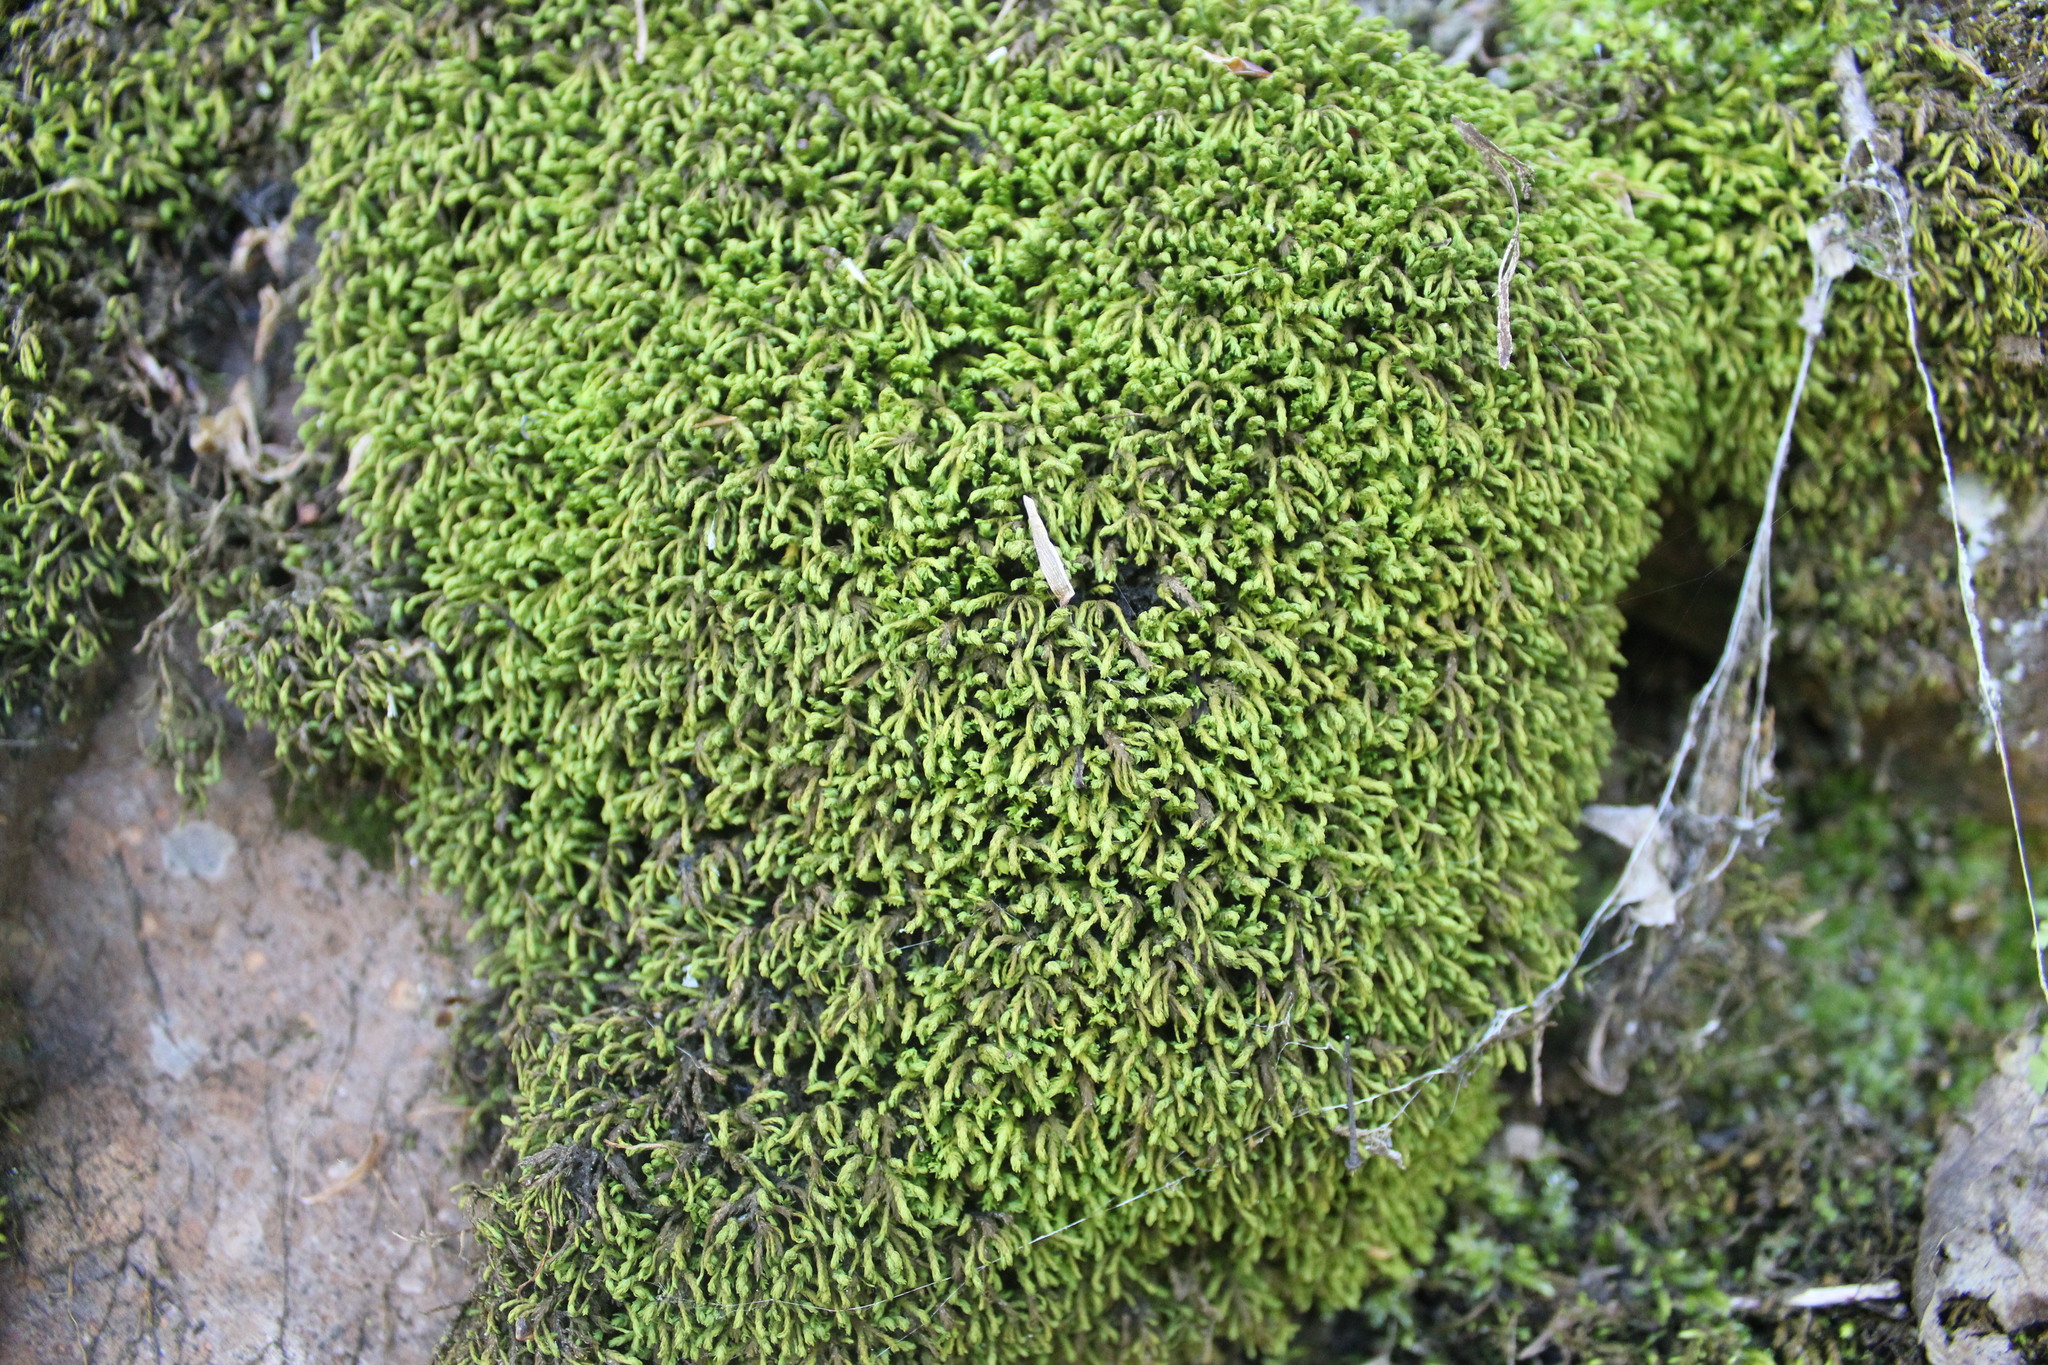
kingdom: Plantae
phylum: Bryophyta
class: Bryopsida
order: Hypnales
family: Neckeraceae
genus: Pseudanomodon
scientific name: Pseudanomodon attenuatus
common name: Tree-skirt moss
